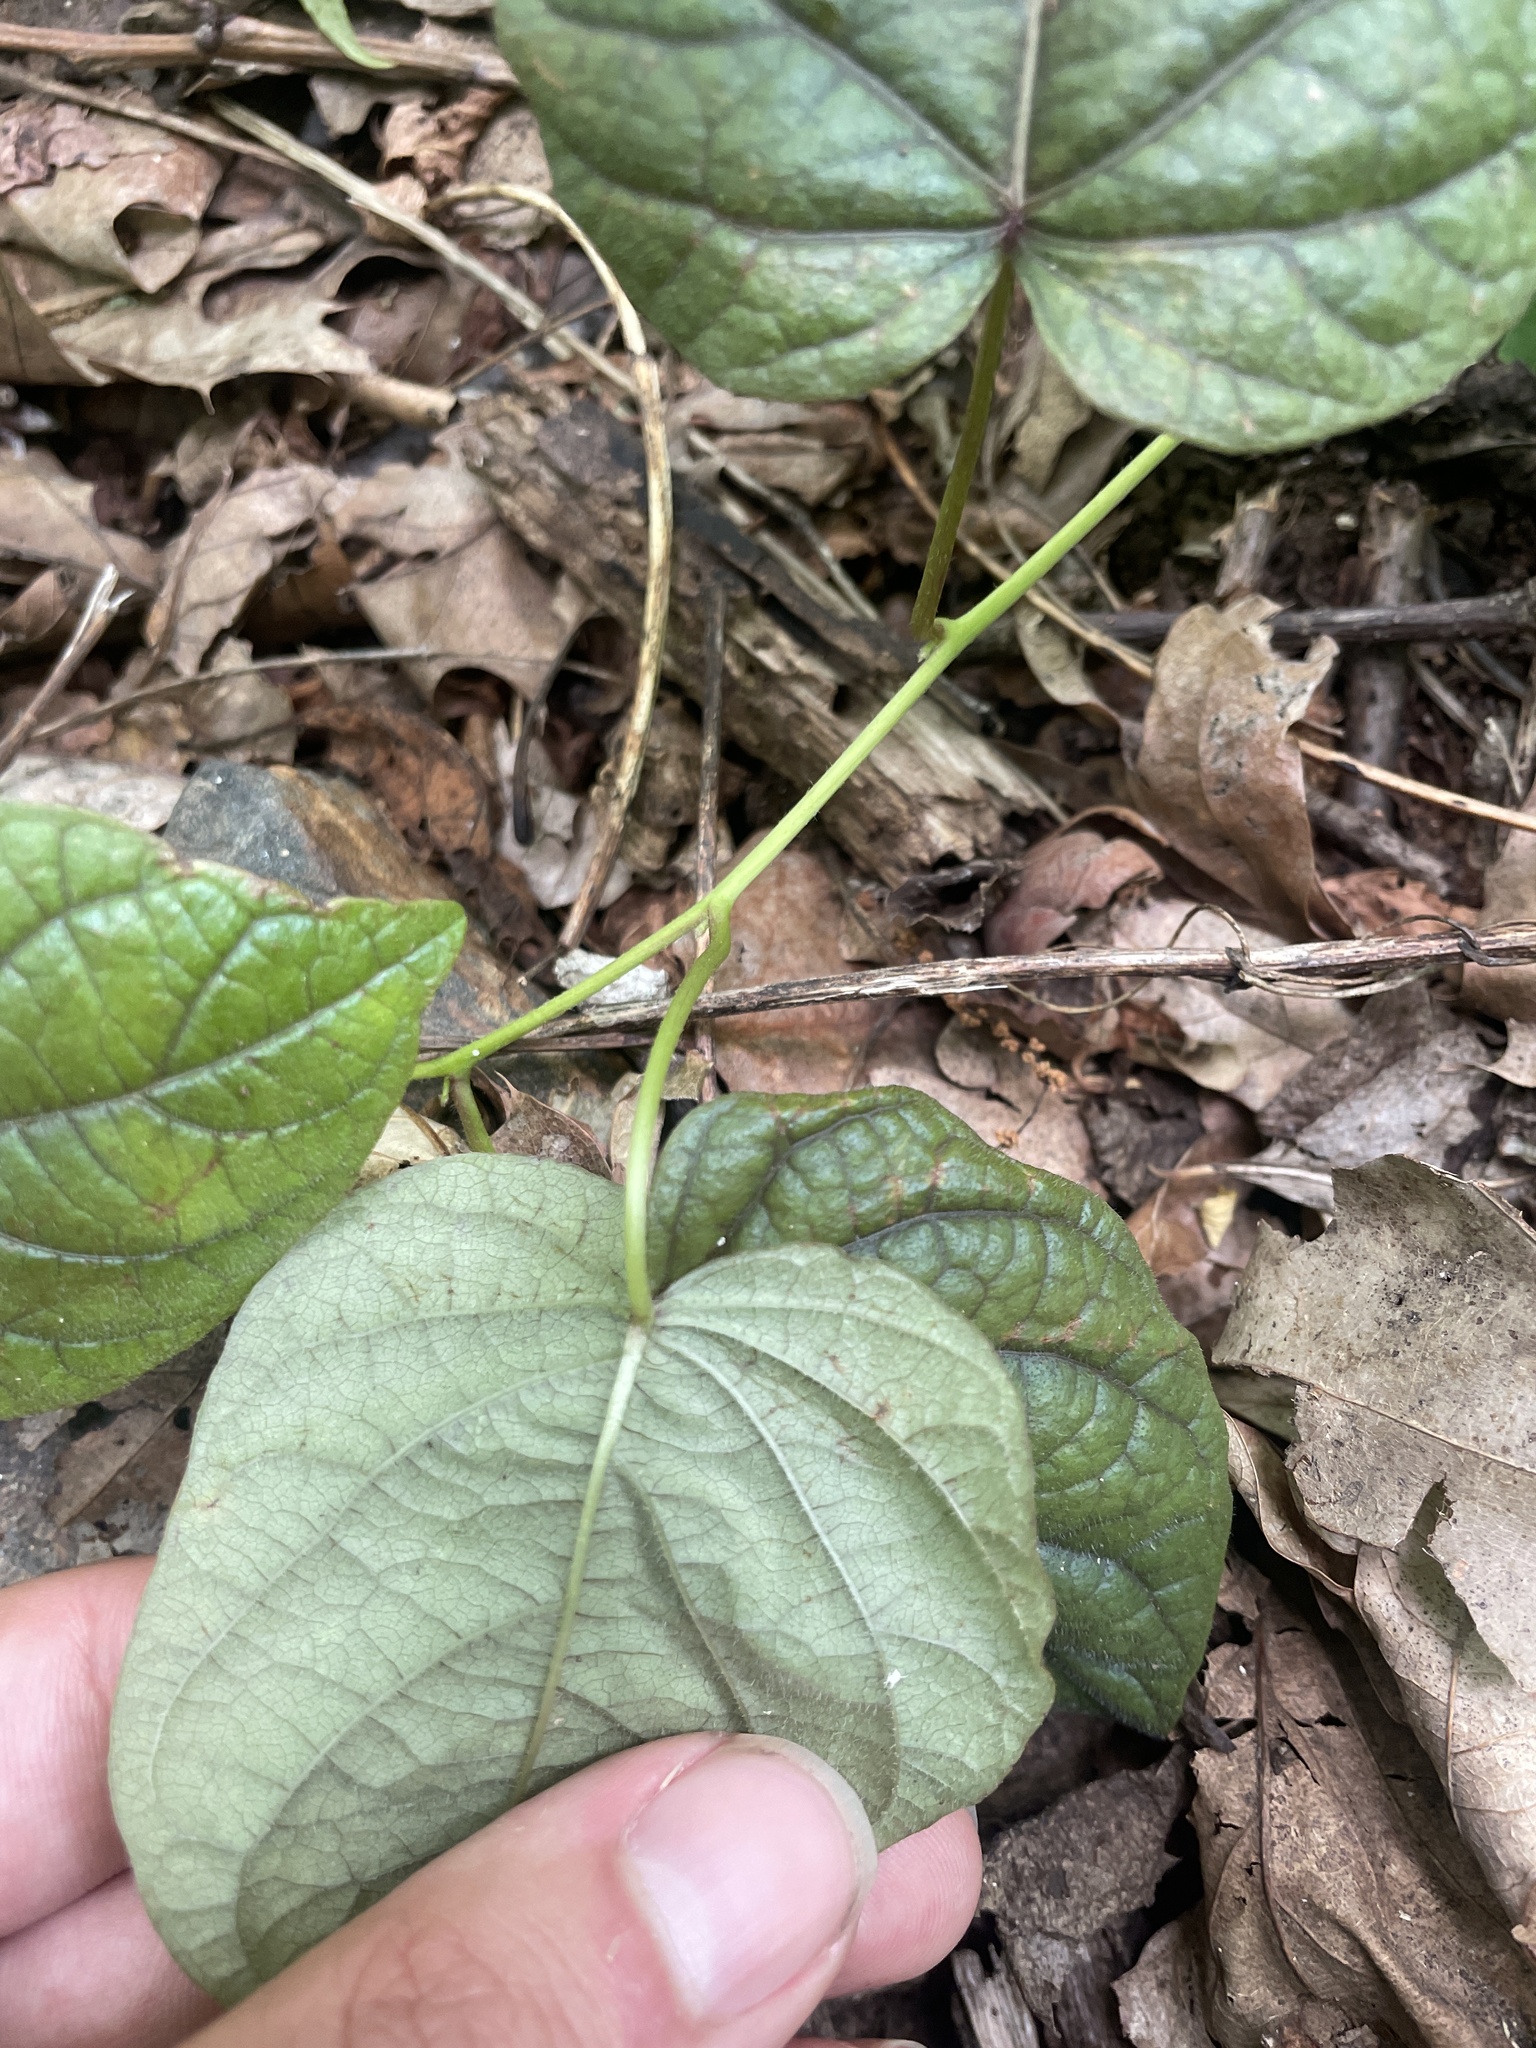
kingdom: Plantae
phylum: Tracheophyta
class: Magnoliopsida
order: Solanales
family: Convolvulaceae
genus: Ipomoea
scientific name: Ipomoea pandurata
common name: Man-of-the-earth
